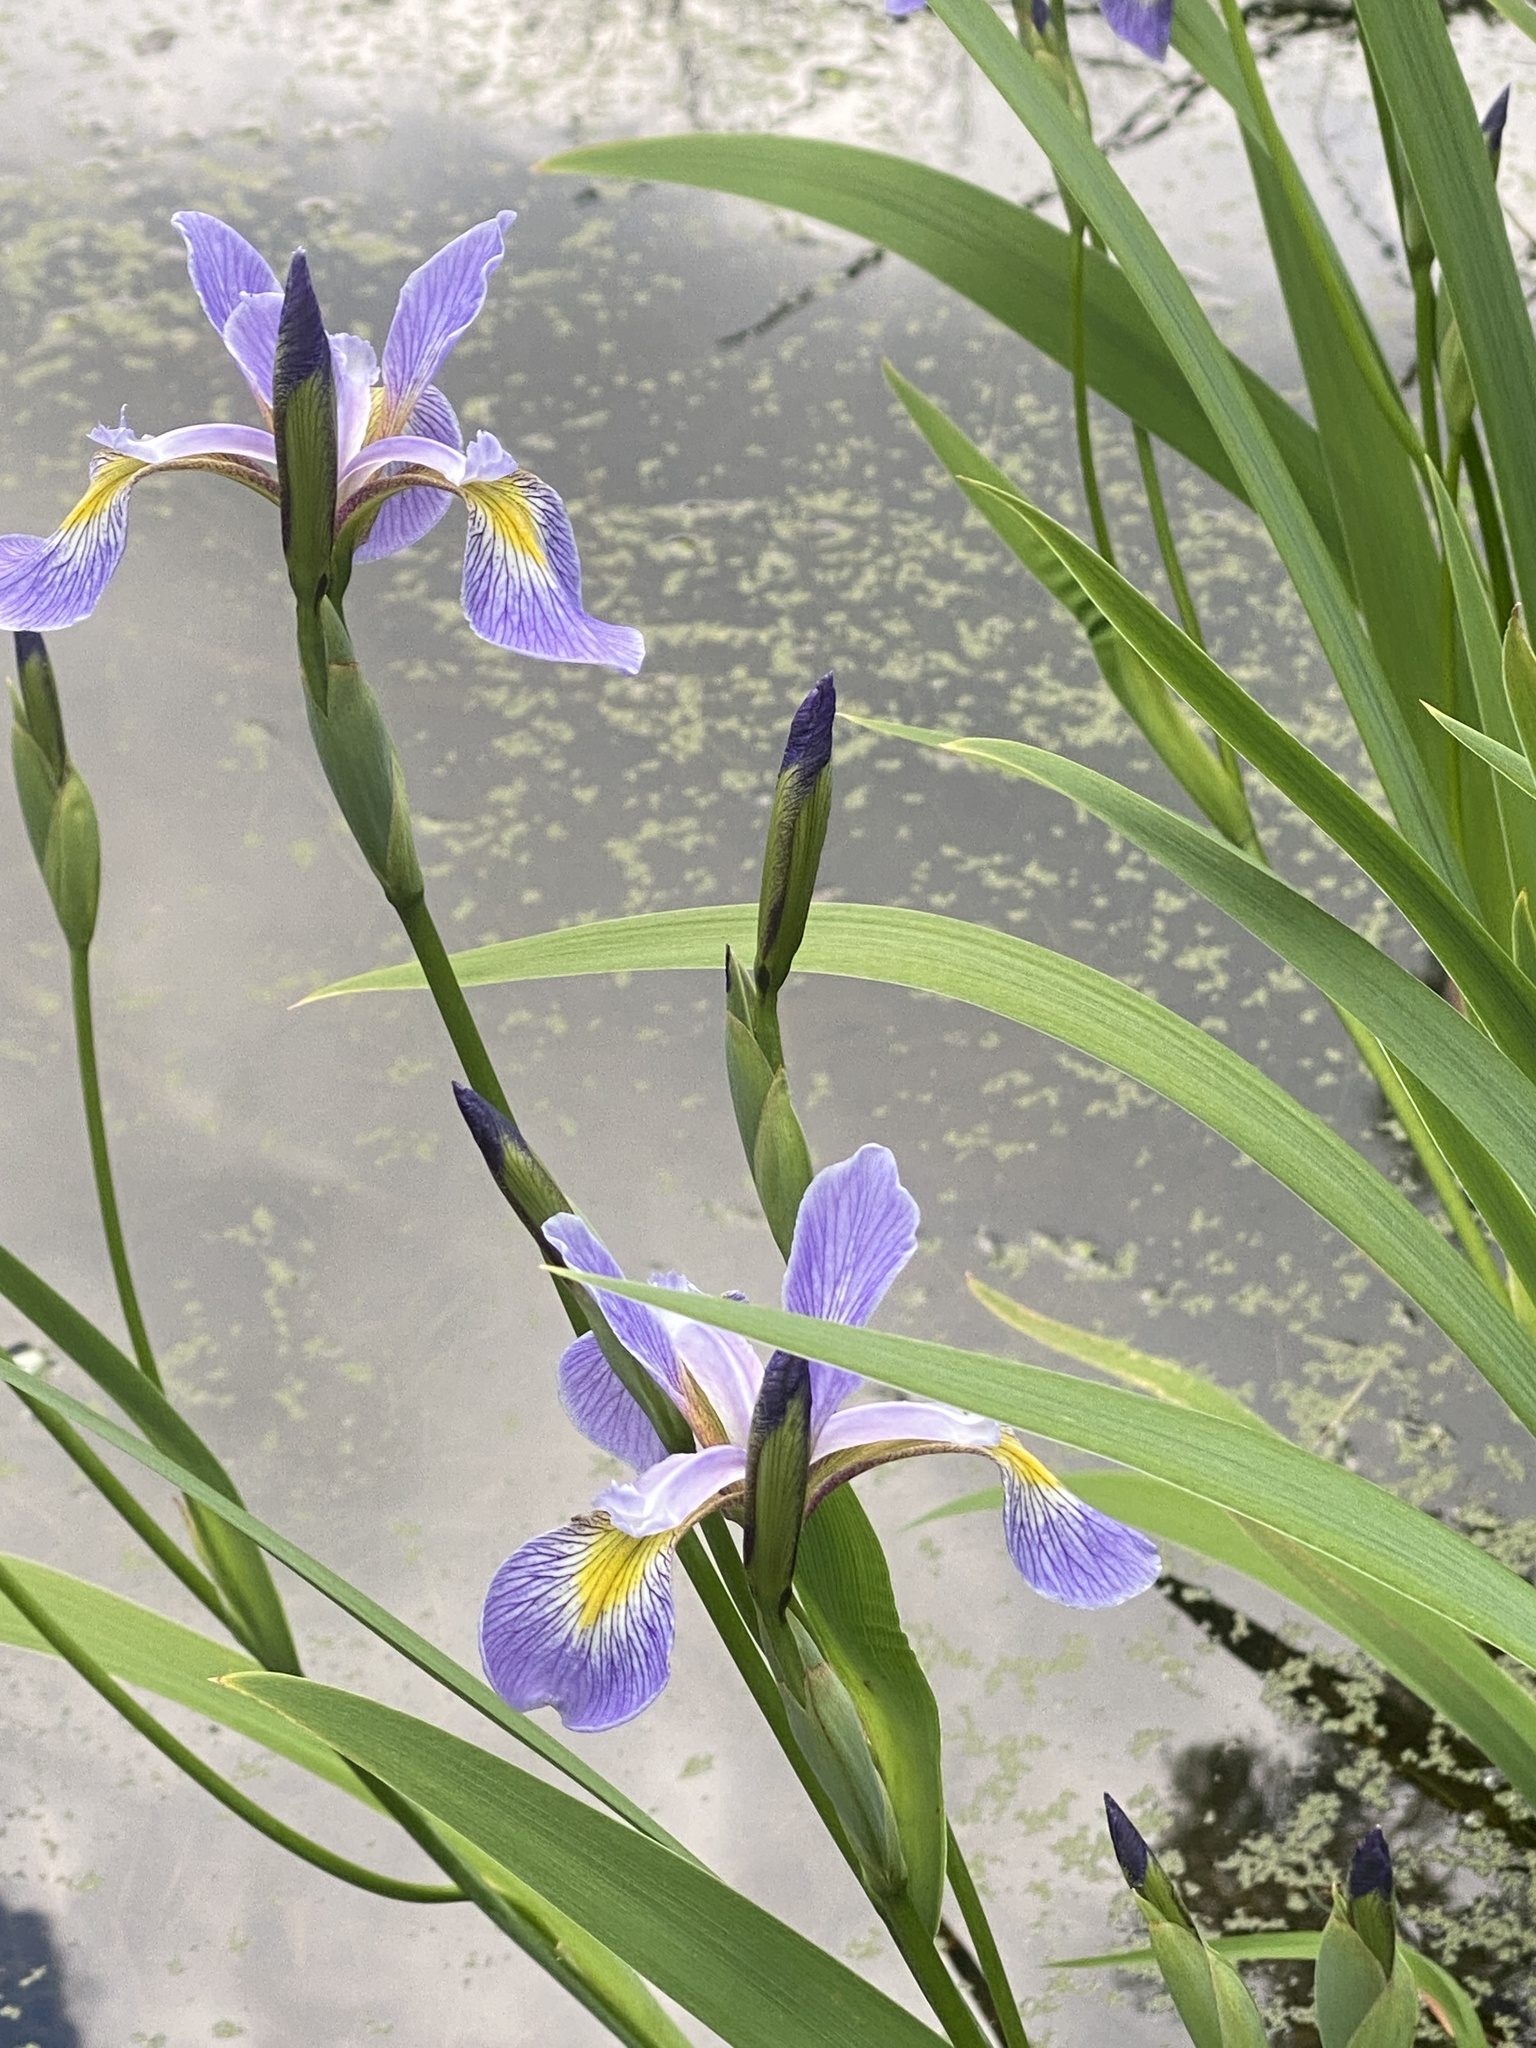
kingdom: Plantae
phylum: Tracheophyta
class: Liliopsida
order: Asparagales
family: Iridaceae
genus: Iris
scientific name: Iris virginica
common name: Southern blue flag
